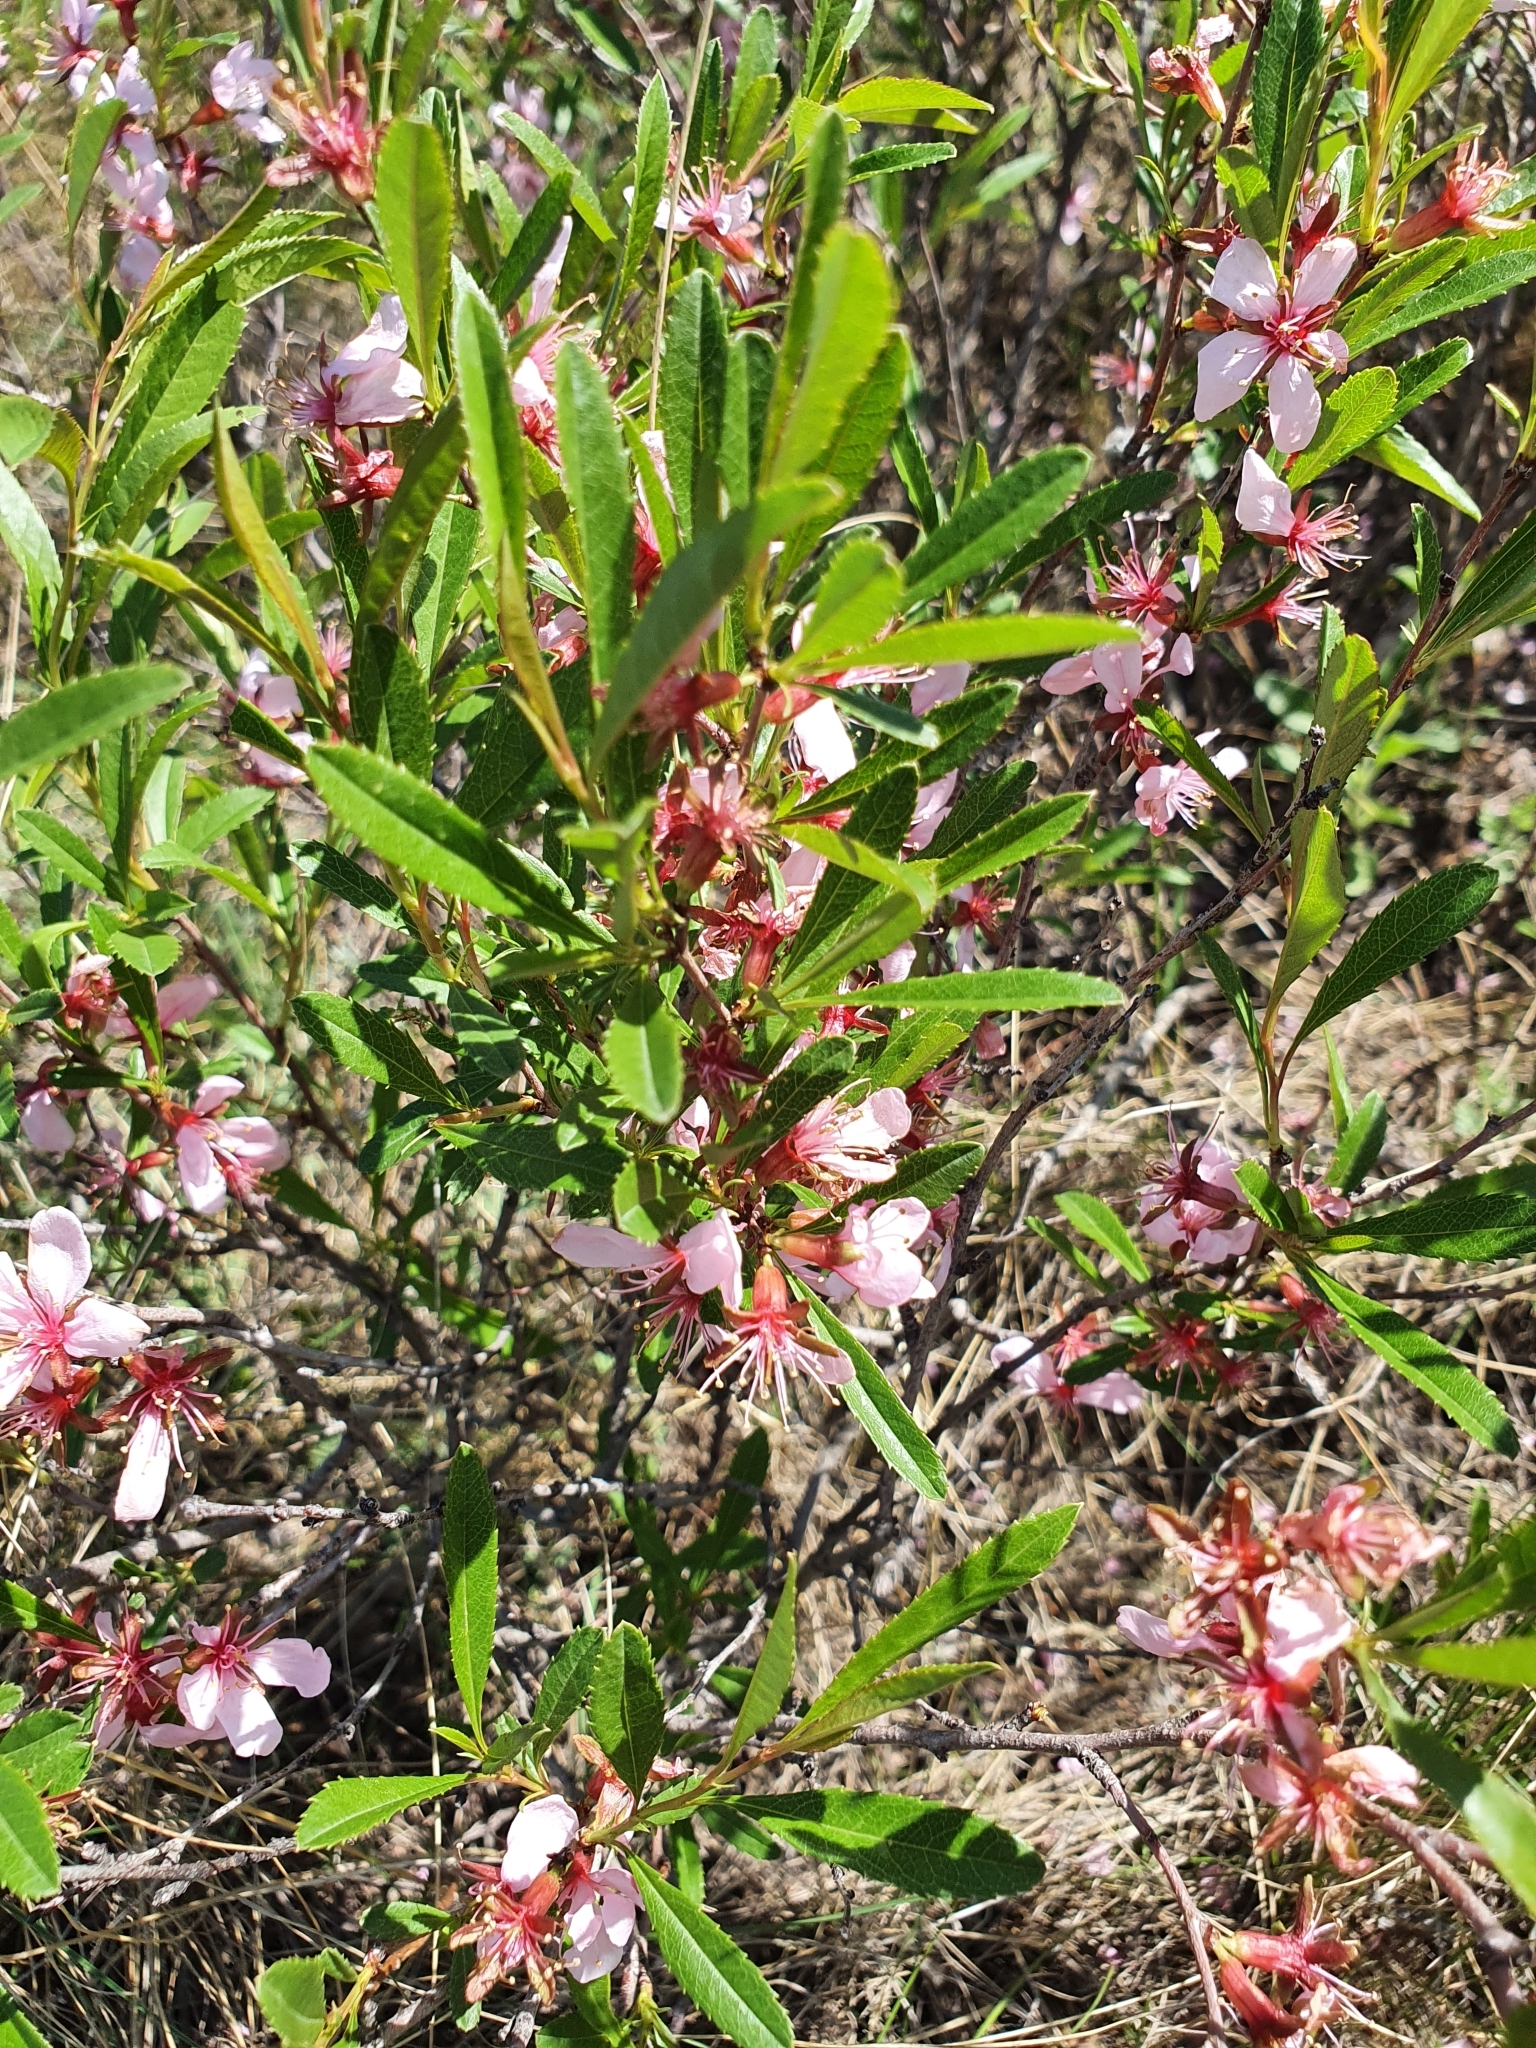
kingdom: Plantae
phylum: Tracheophyta
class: Magnoliopsida
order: Rosales
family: Rosaceae
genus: Prunus
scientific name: Prunus tenella
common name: Dwarf russian almond
